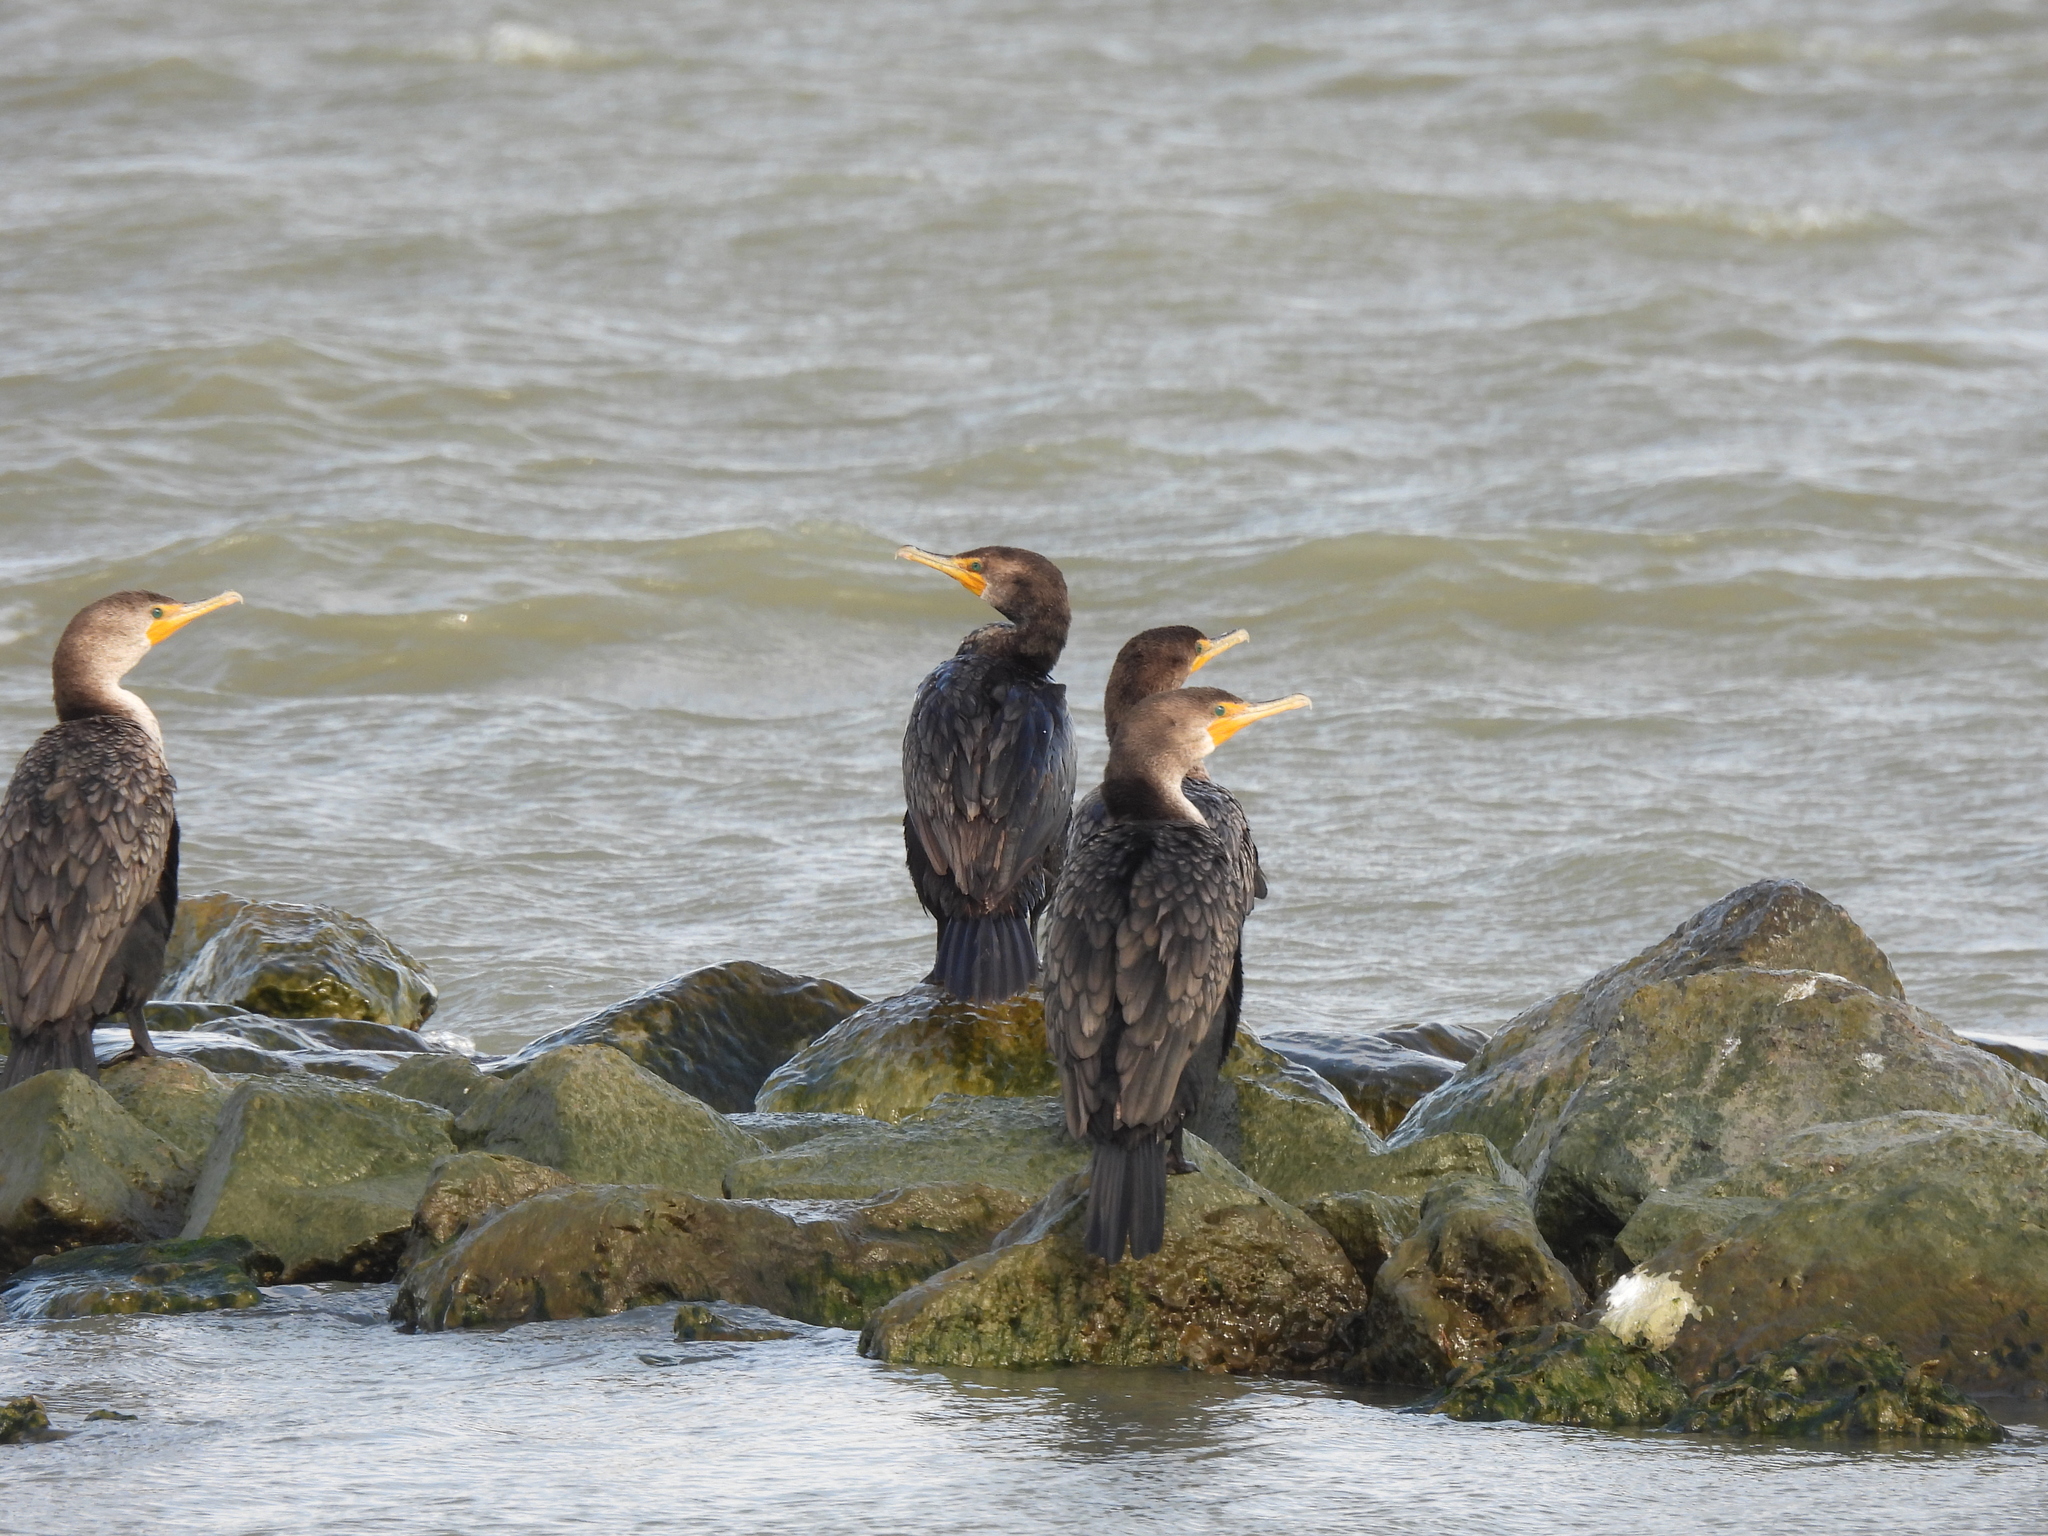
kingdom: Animalia
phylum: Chordata
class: Aves
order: Suliformes
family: Phalacrocoracidae
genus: Phalacrocorax
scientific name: Phalacrocorax auritus
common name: Double-crested cormorant
